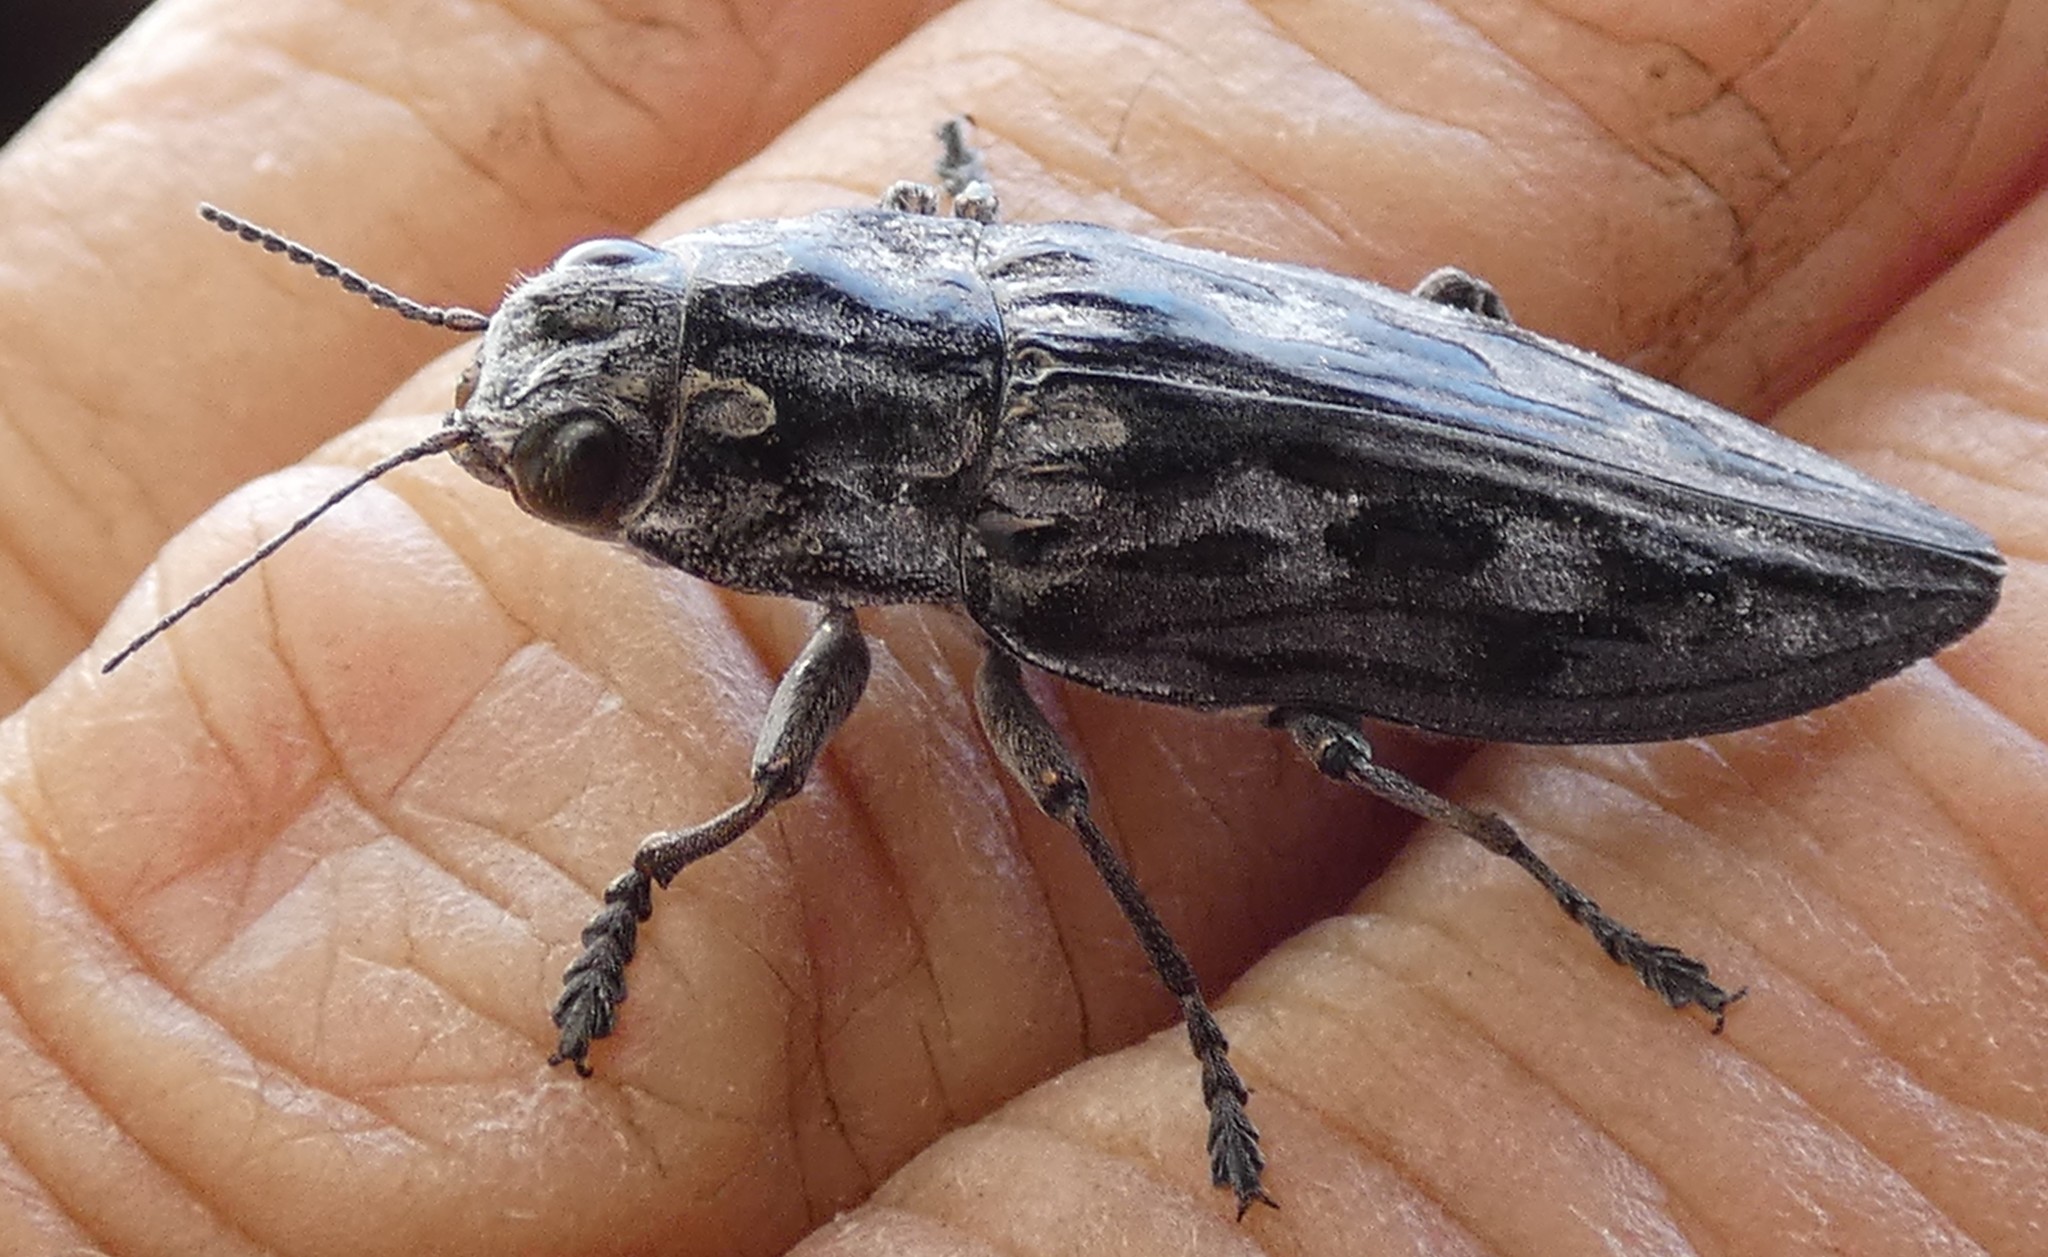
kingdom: Animalia
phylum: Arthropoda
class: Insecta
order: Coleoptera
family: Buprestidae
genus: Chalcophora
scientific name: Chalcophora virginiensis
